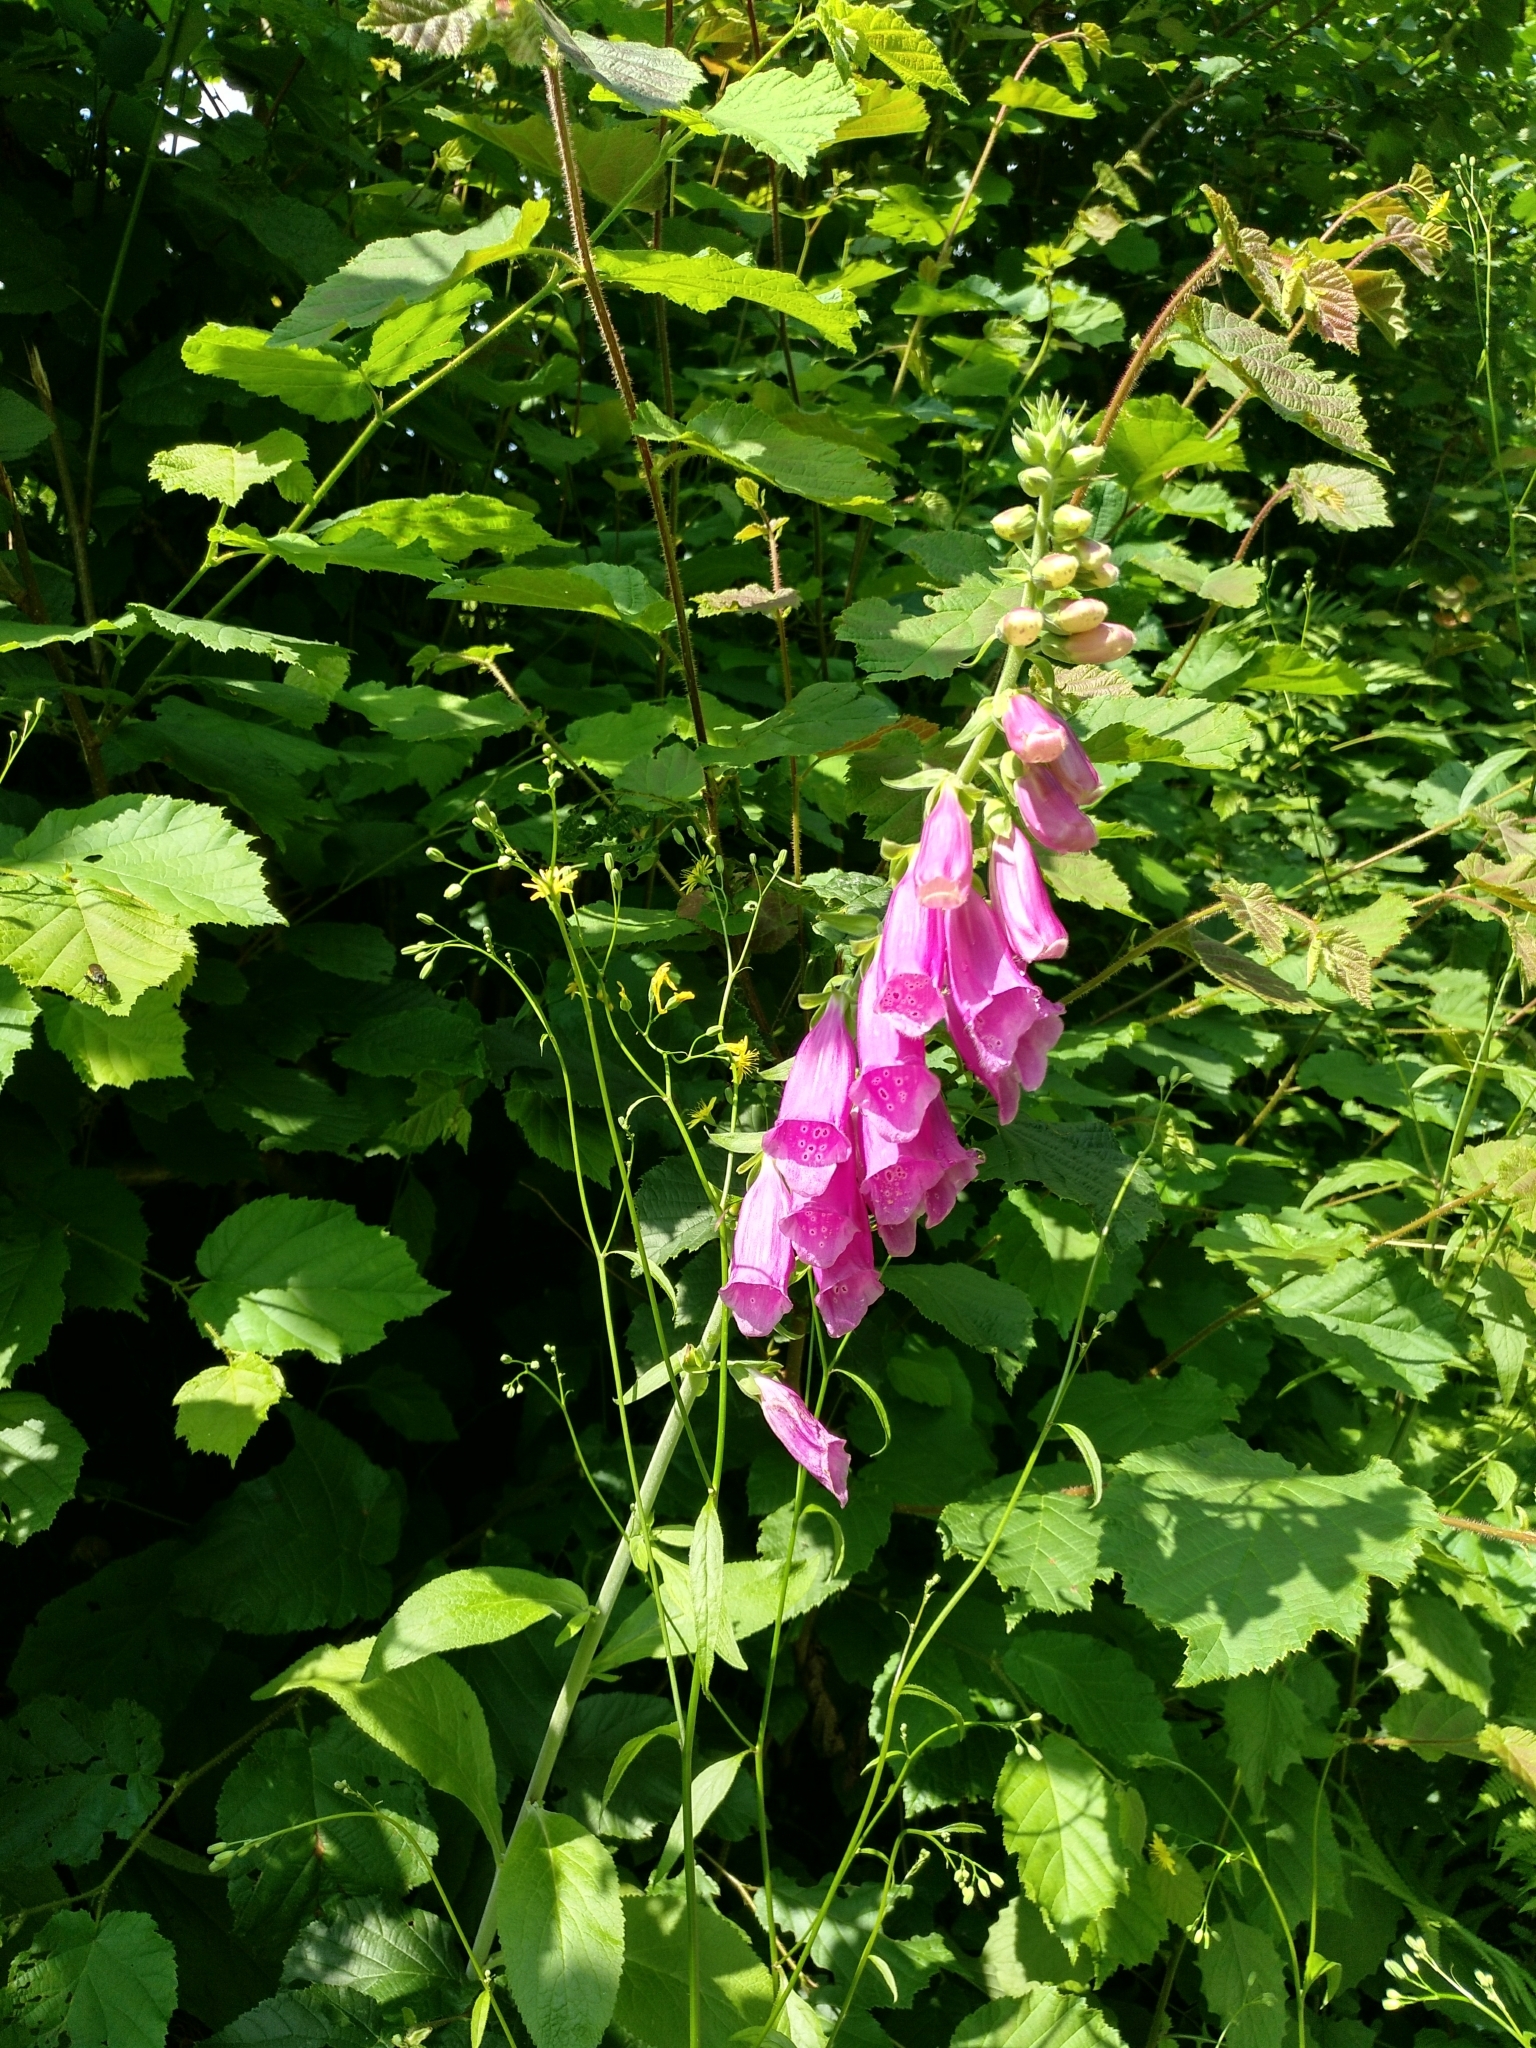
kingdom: Plantae
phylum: Tracheophyta
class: Magnoliopsida
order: Lamiales
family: Plantaginaceae
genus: Digitalis
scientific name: Digitalis purpurea
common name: Foxglove
